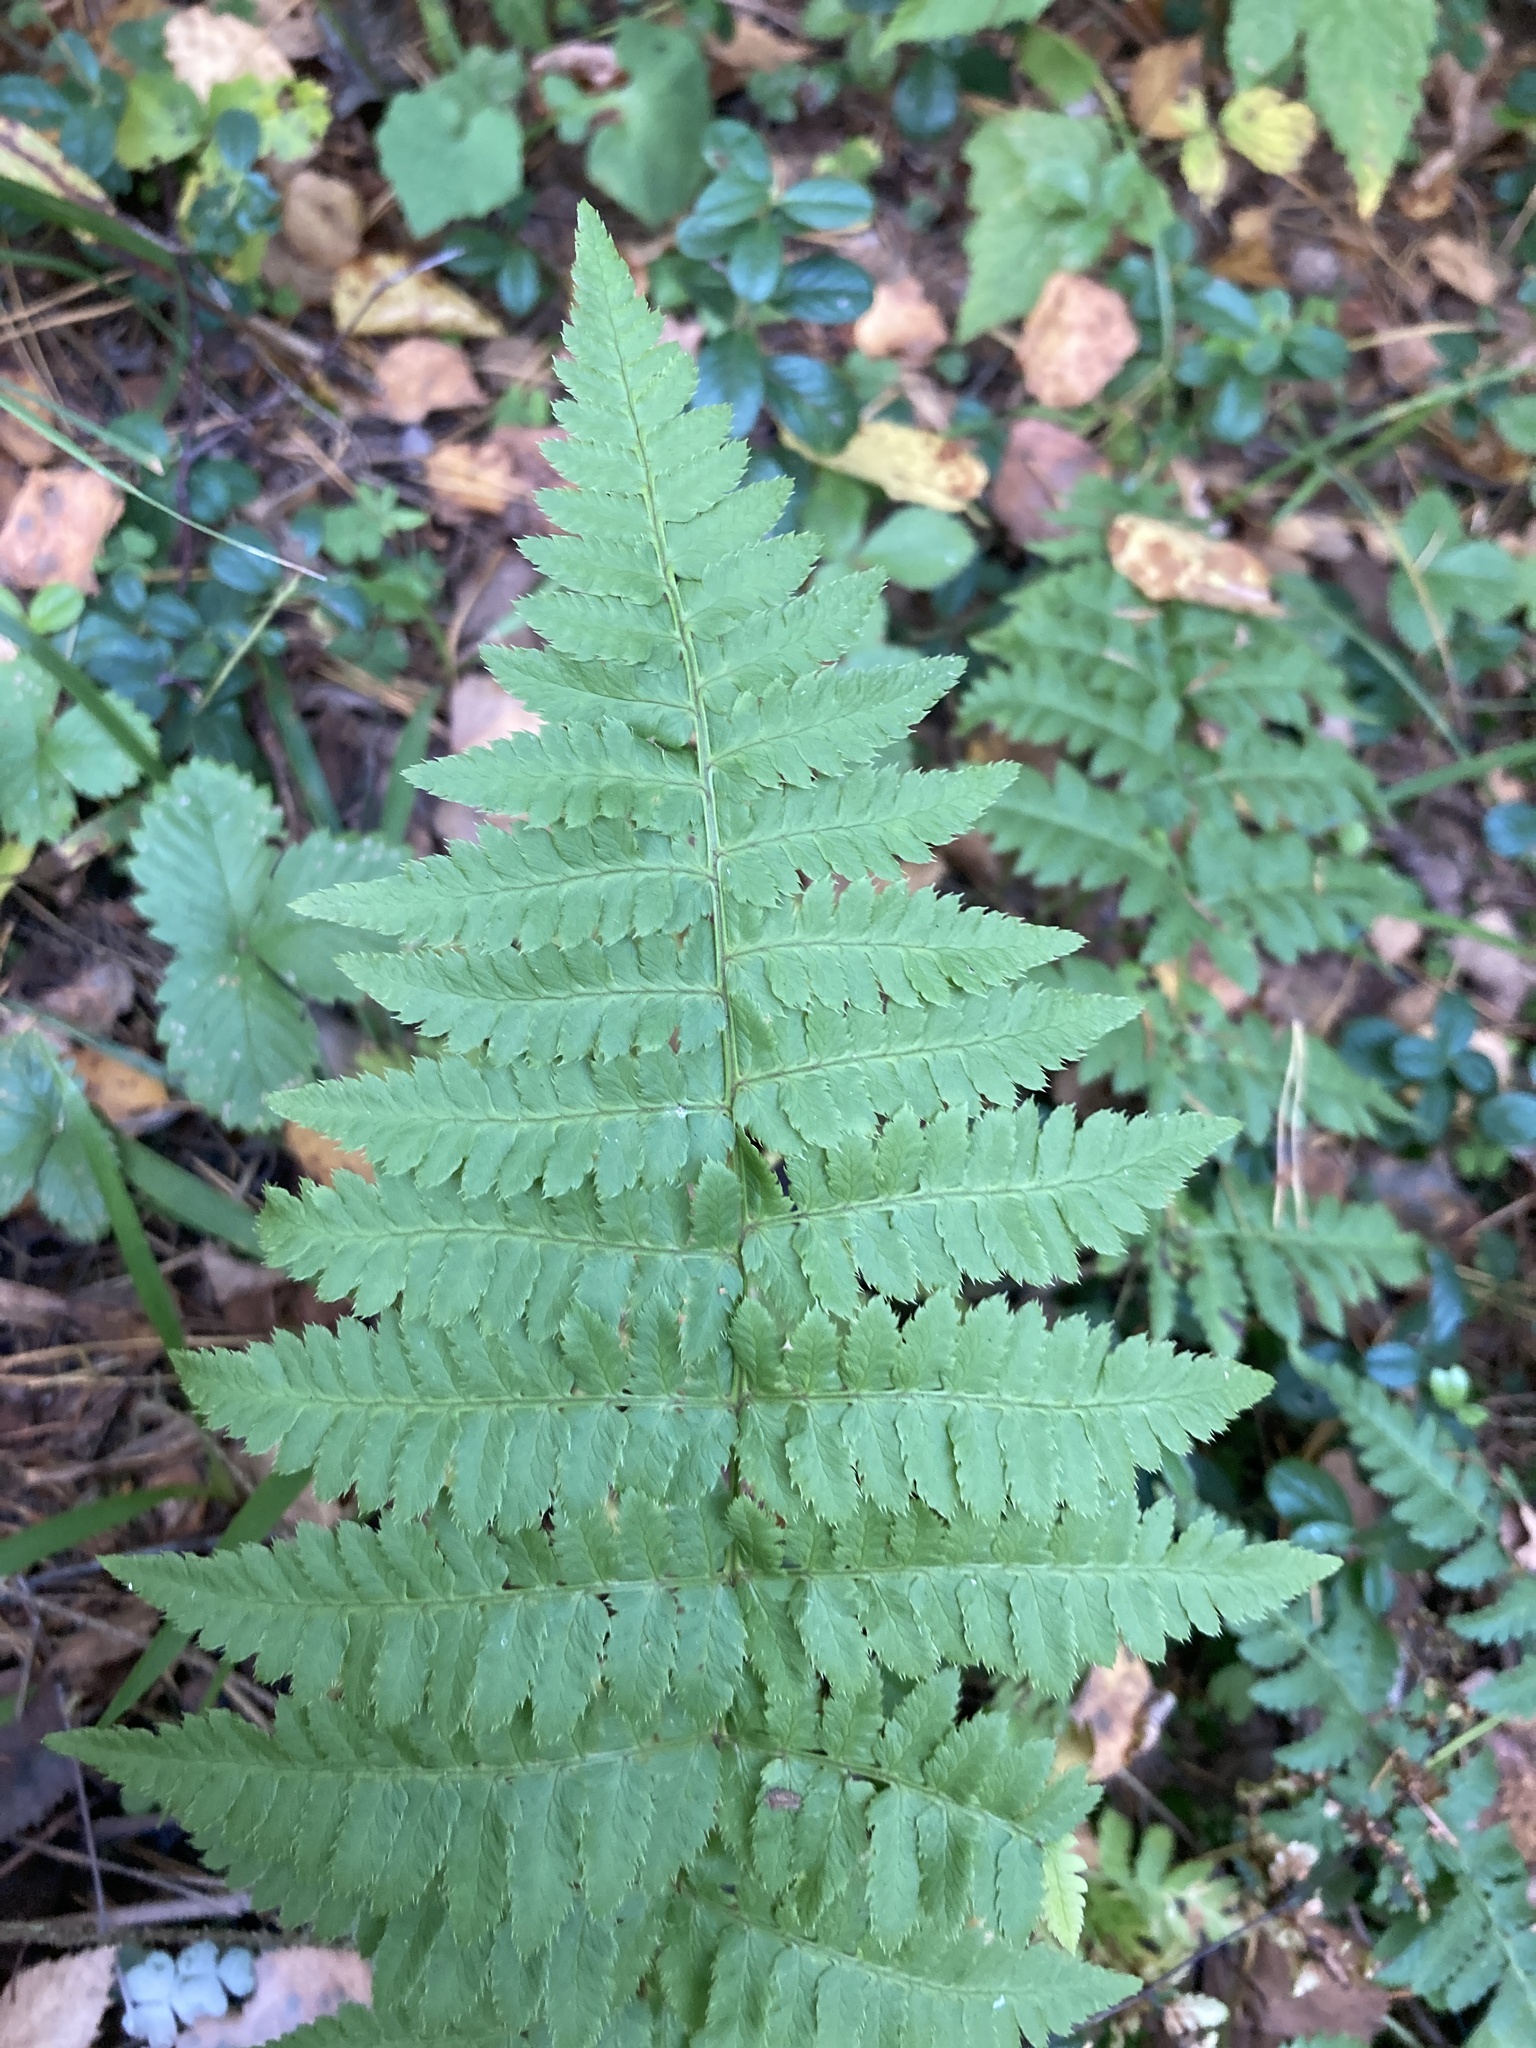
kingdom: Plantae
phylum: Tracheophyta
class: Polypodiopsida
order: Polypodiales
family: Dryopteridaceae
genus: Dryopteris
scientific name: Dryopteris carthusiana
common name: Narrow buckler-fern
